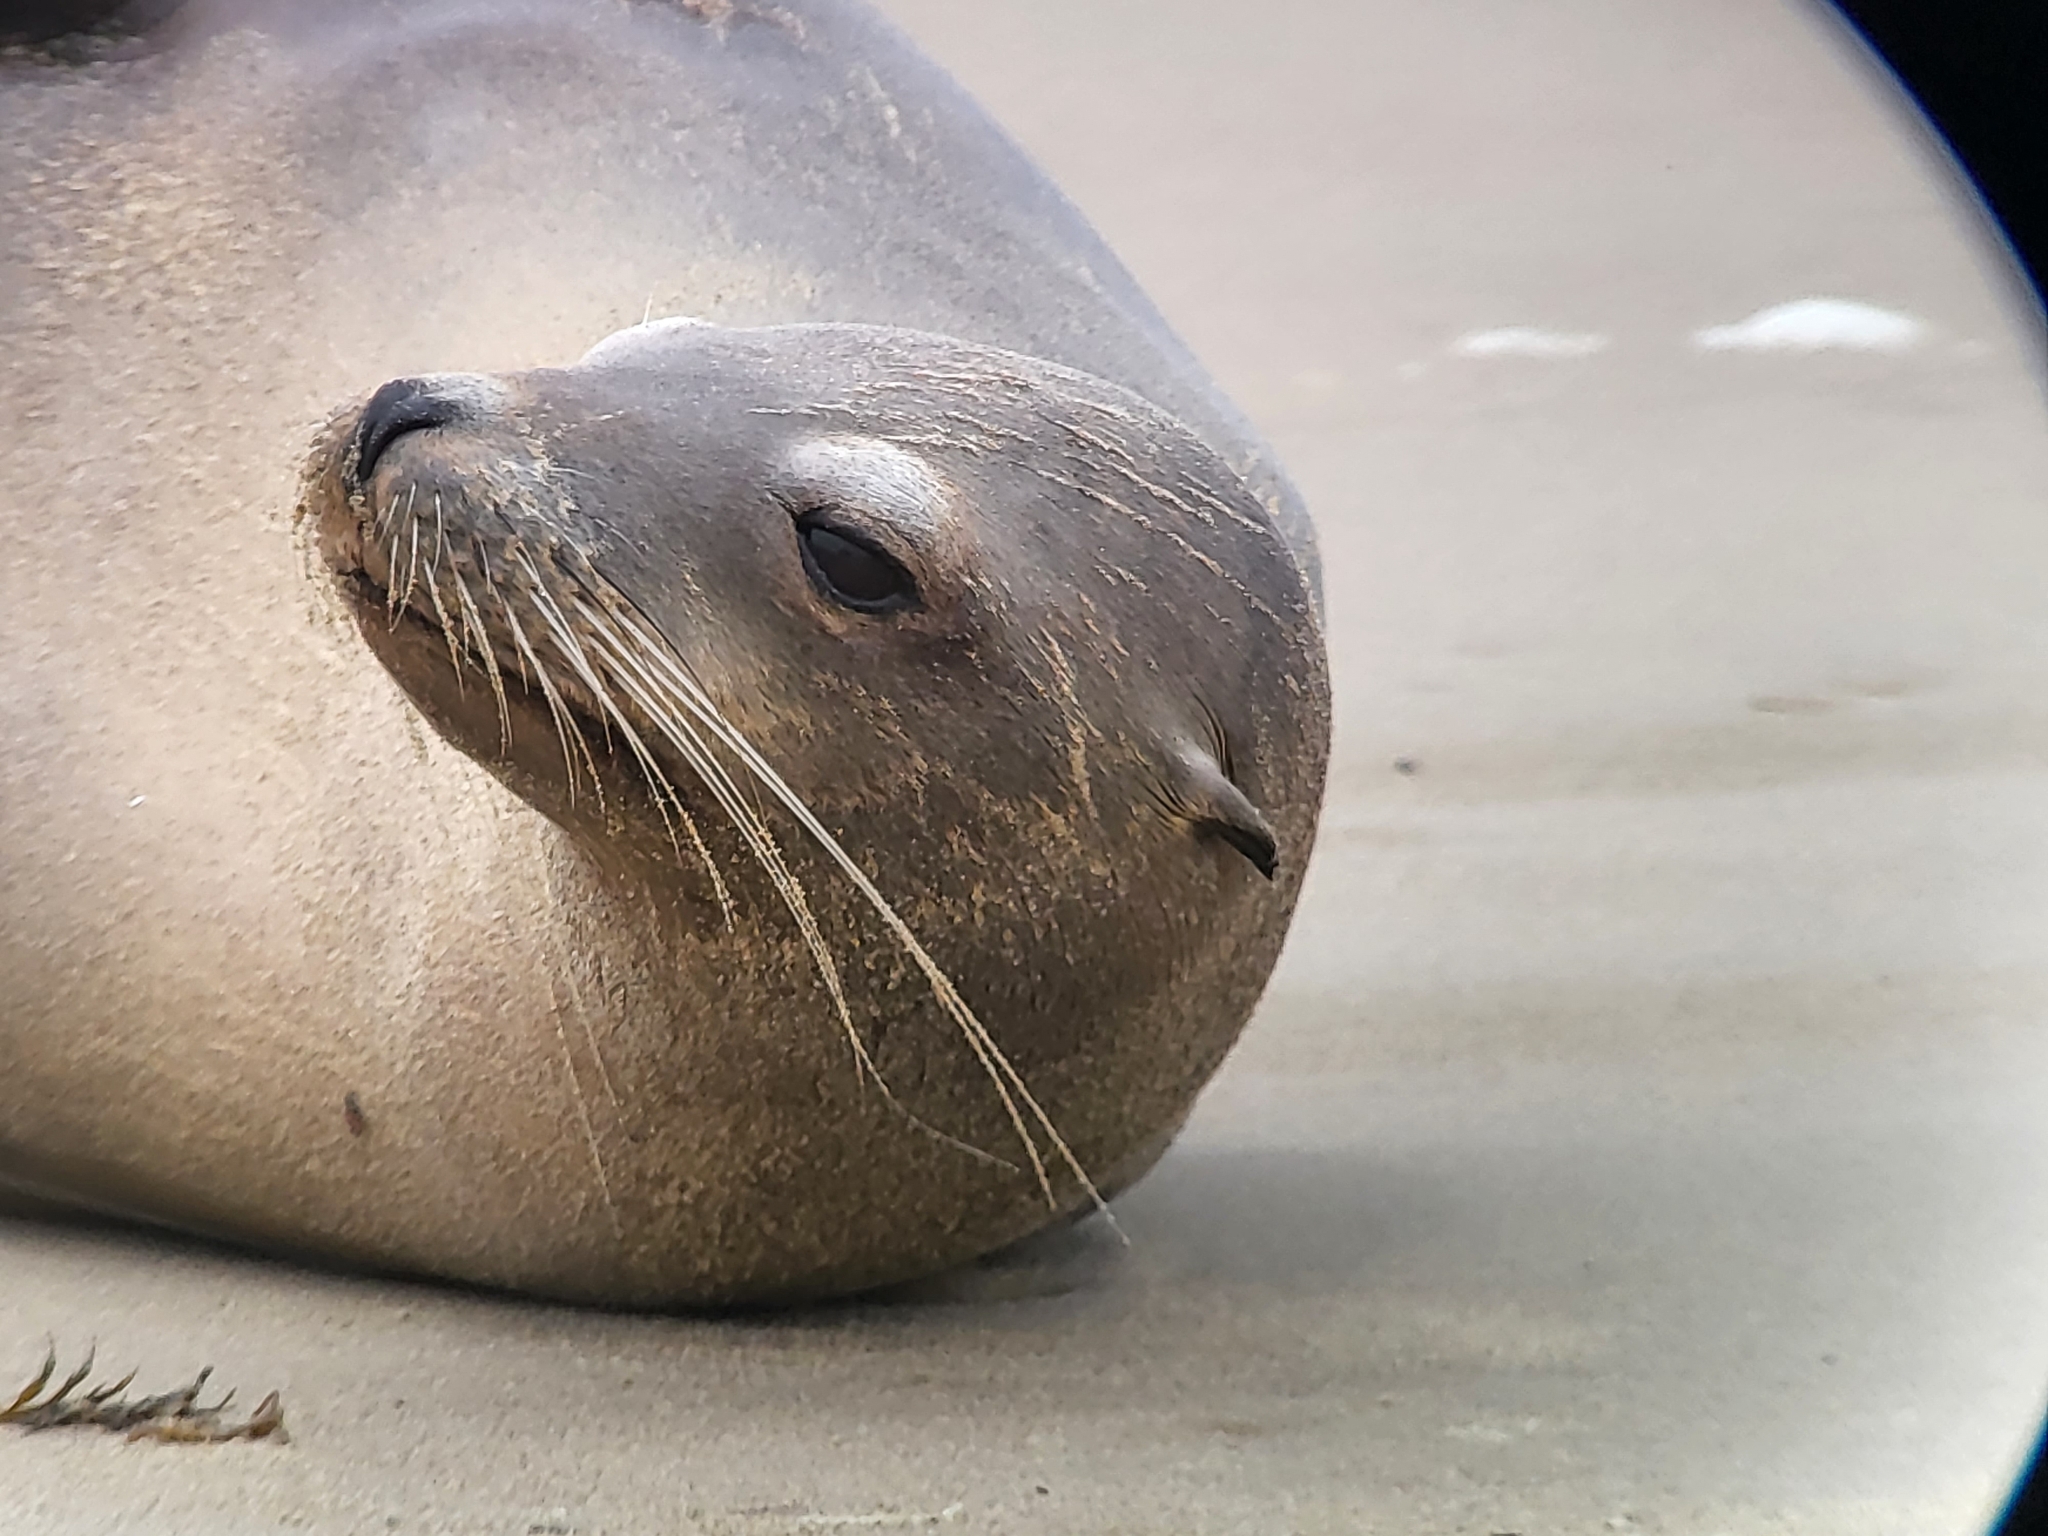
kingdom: Animalia
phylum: Chordata
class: Mammalia
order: Carnivora
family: Otariidae
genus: Zalophus
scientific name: Zalophus californianus
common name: California sea lion
